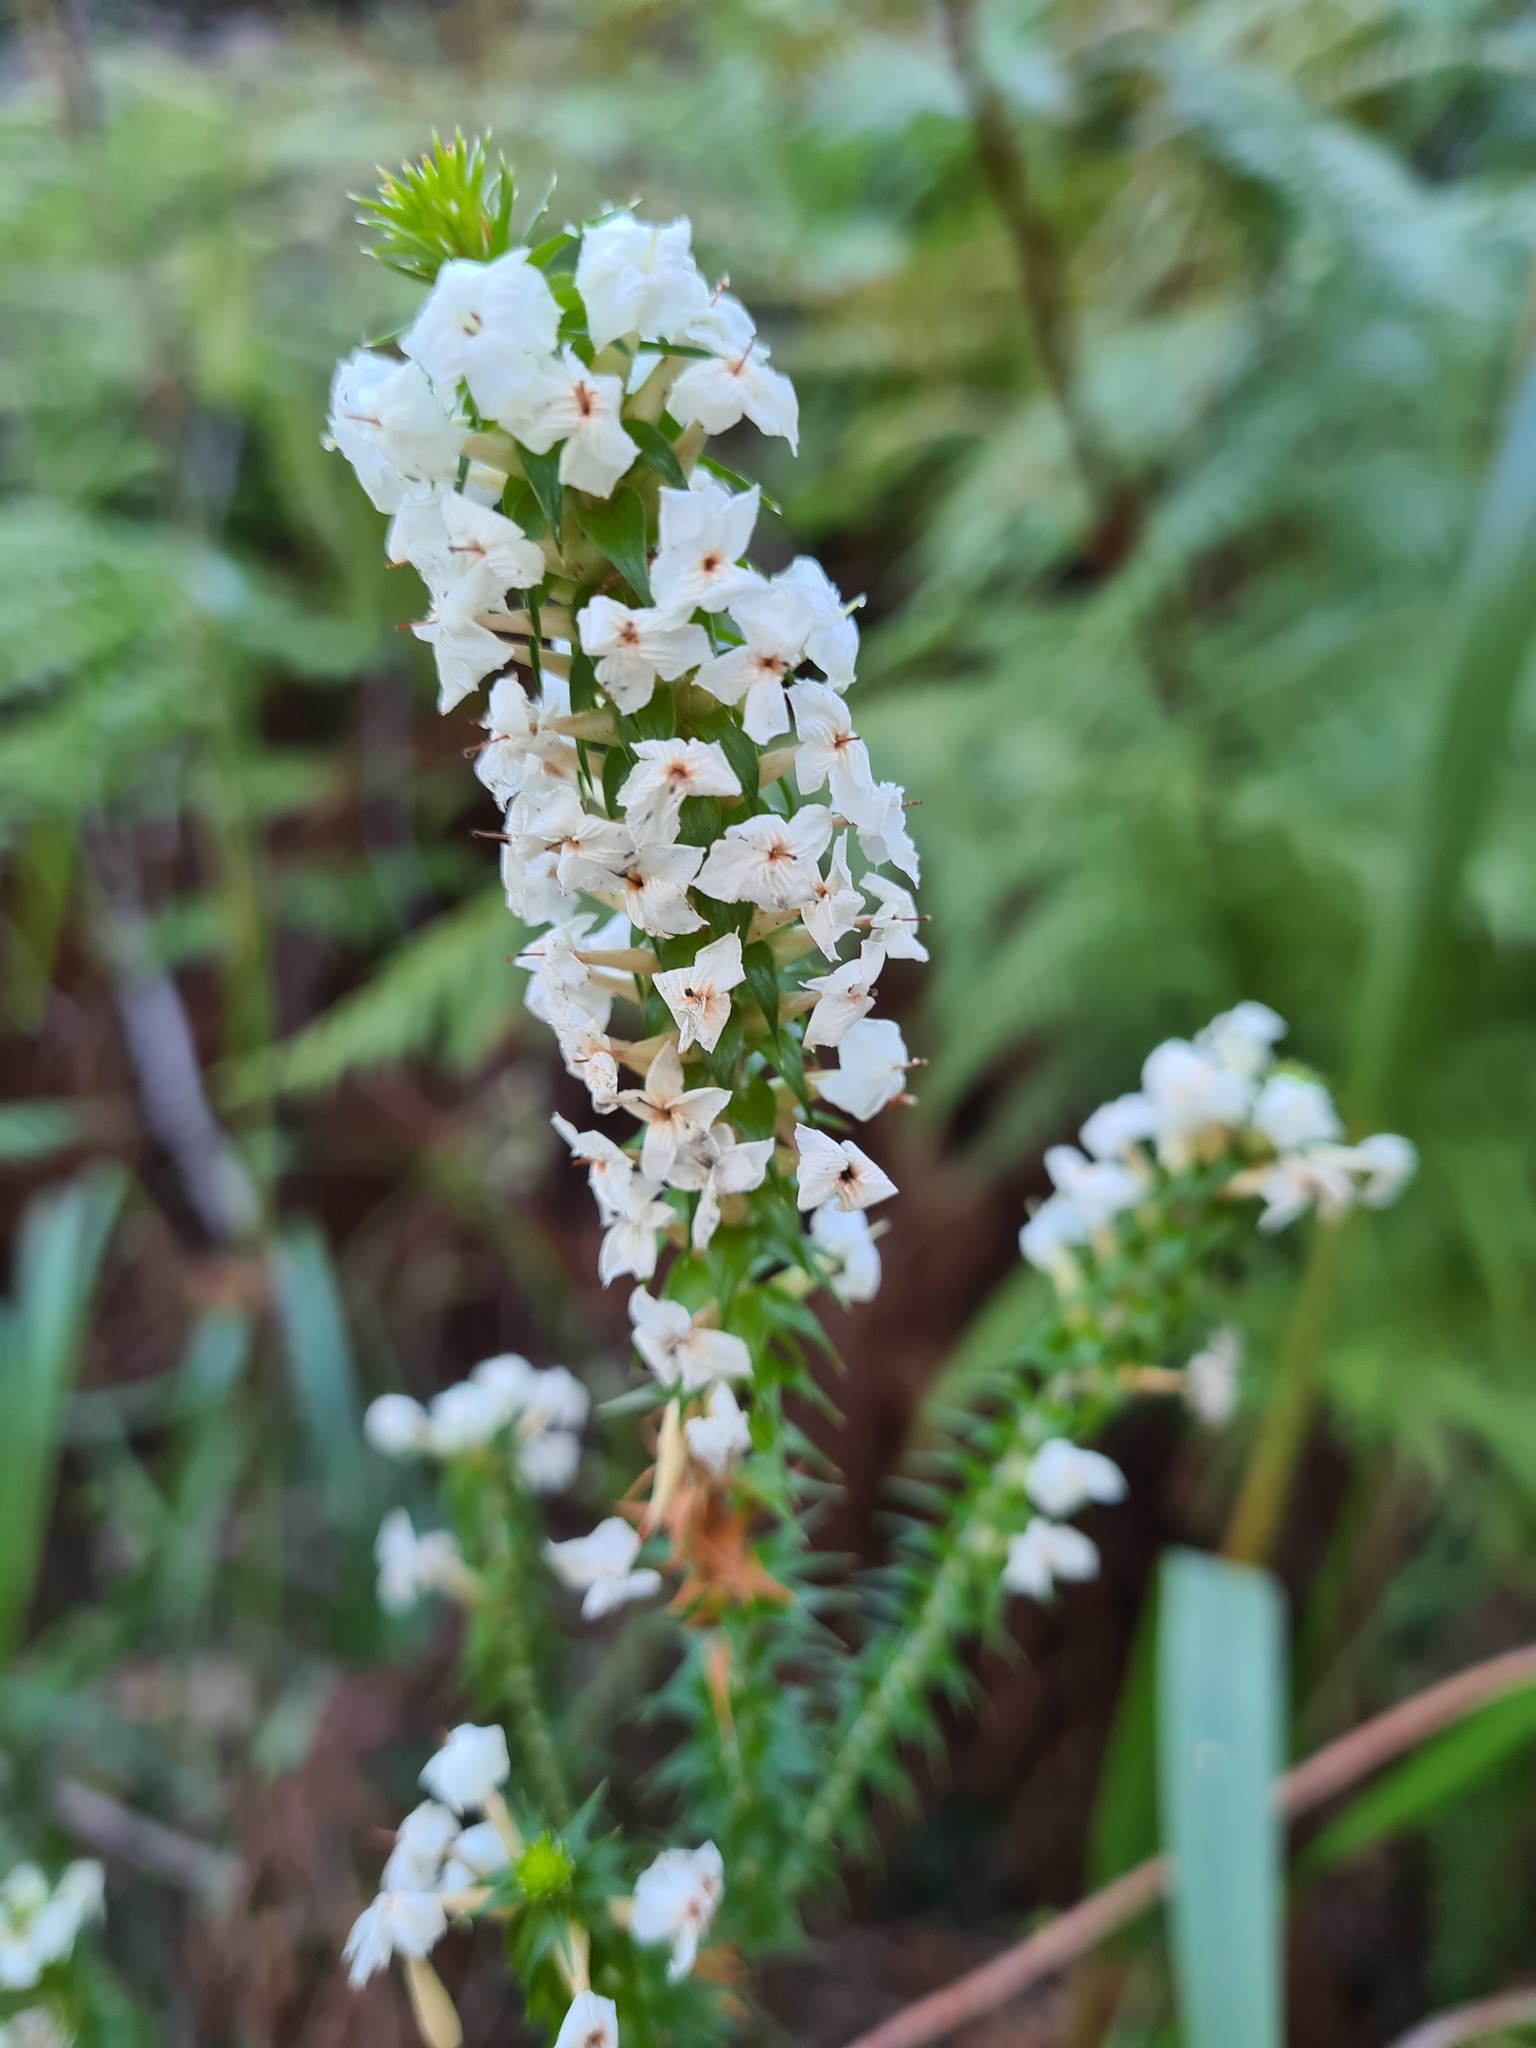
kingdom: Plantae
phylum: Tracheophyta
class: Magnoliopsida
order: Ericales
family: Ericaceae
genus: Woollsia
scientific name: Woollsia pungens
